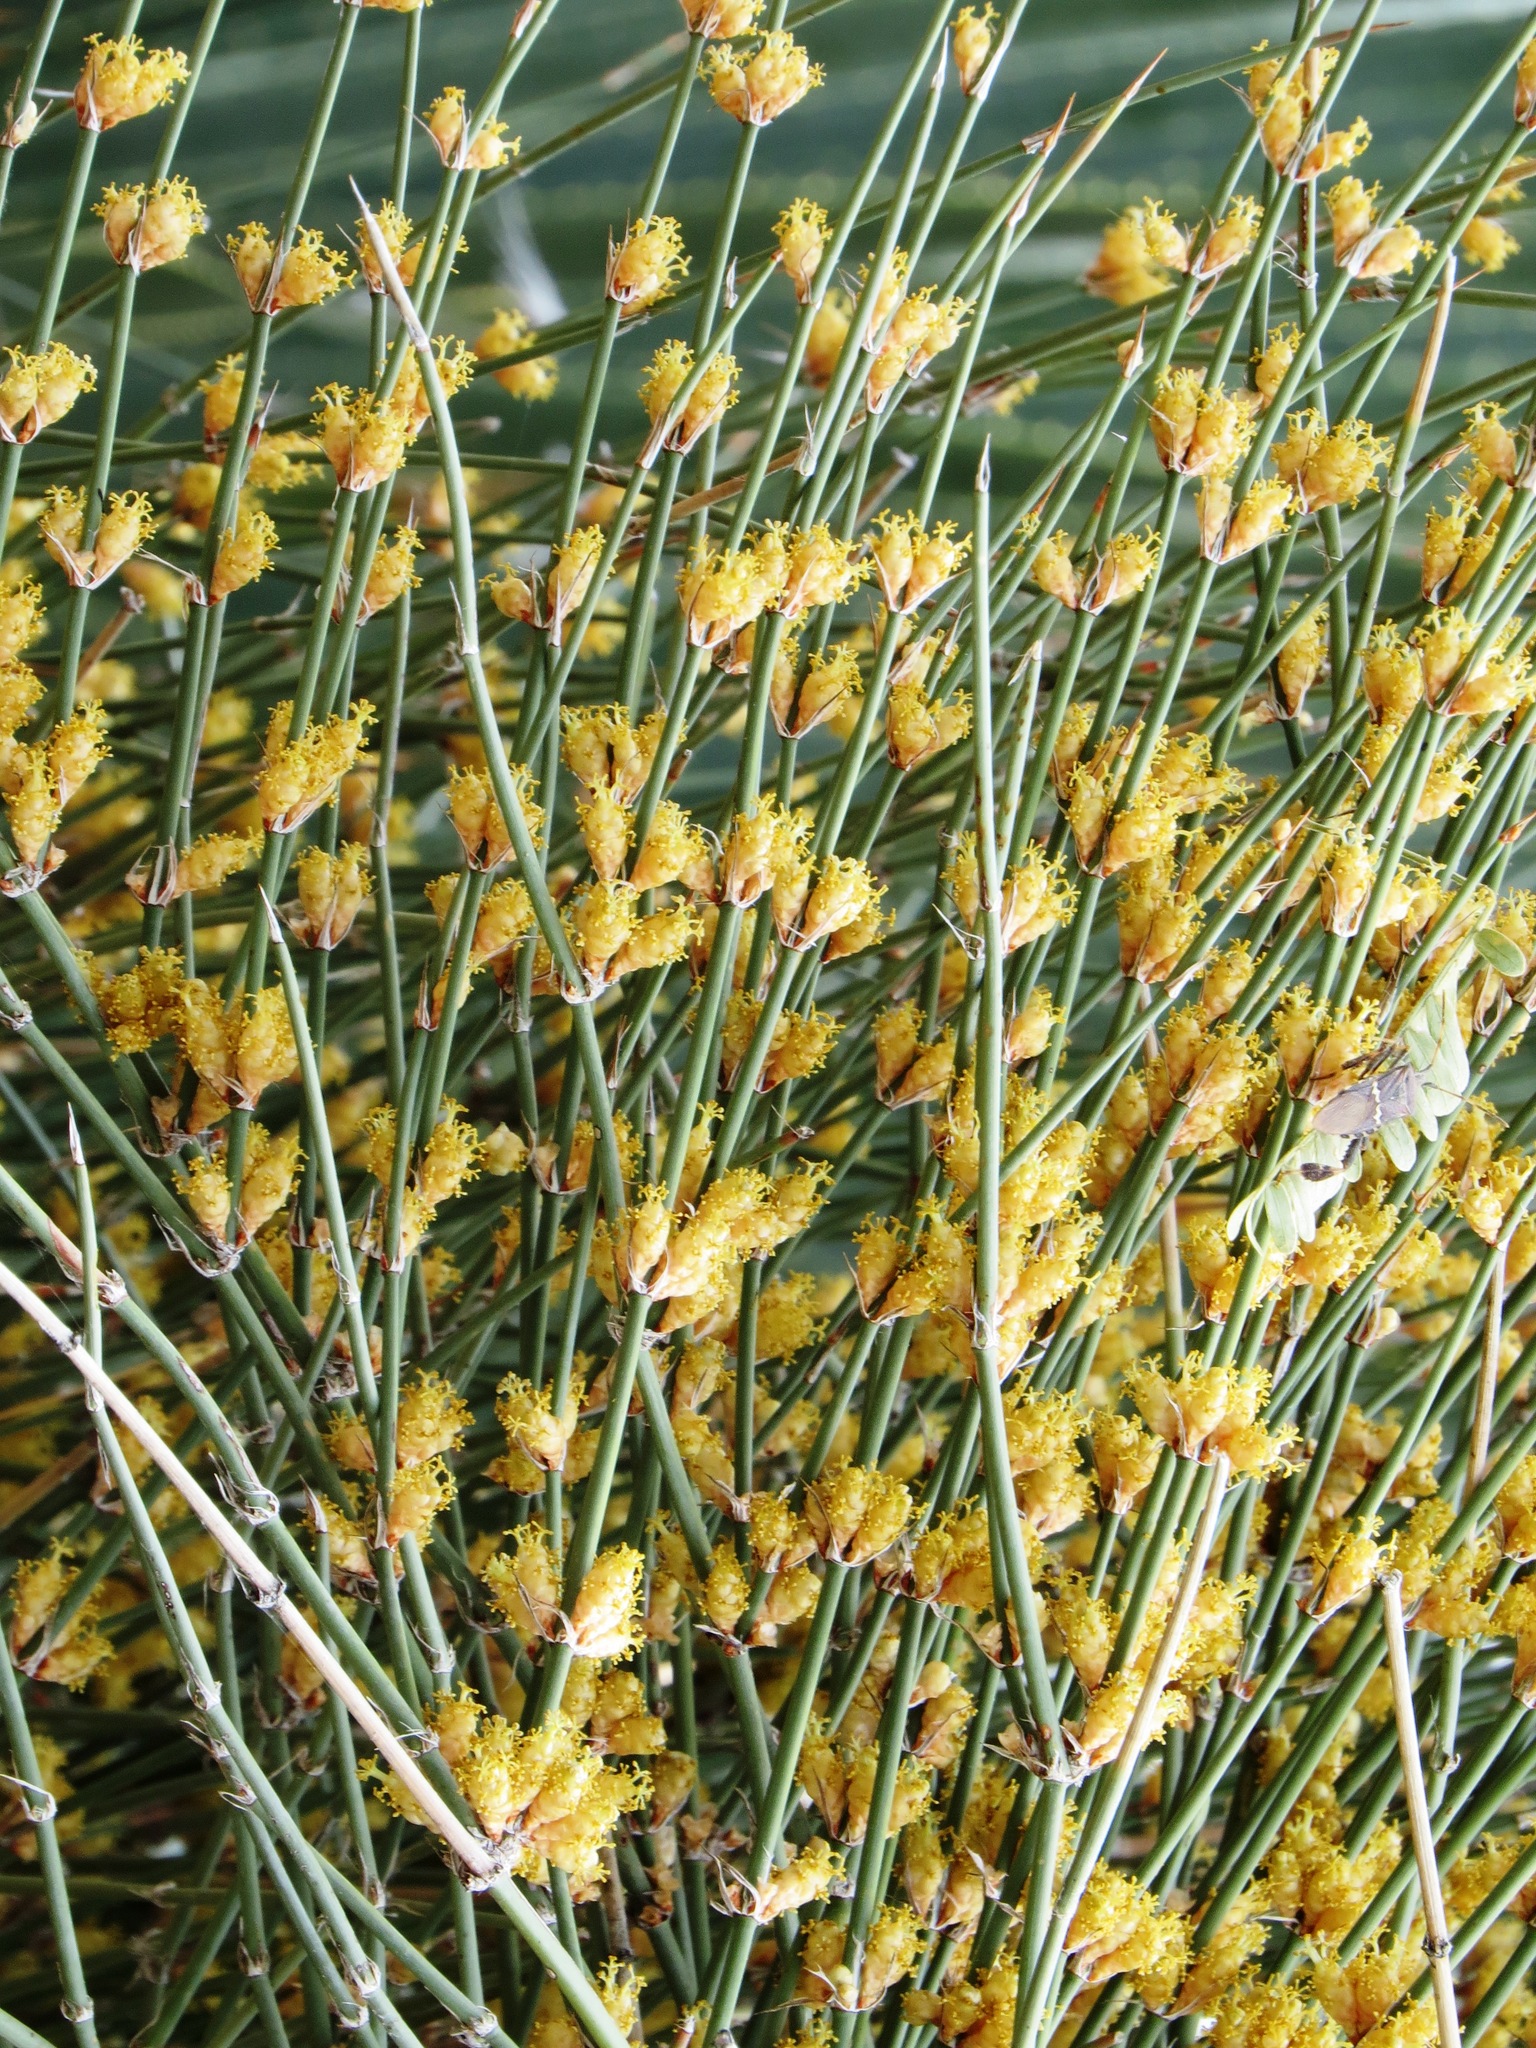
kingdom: Plantae
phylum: Tracheophyta
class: Gnetopsida
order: Ephedrales
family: Ephedraceae
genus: Ephedra
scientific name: Ephedra trifurca
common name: Mexican-tea
